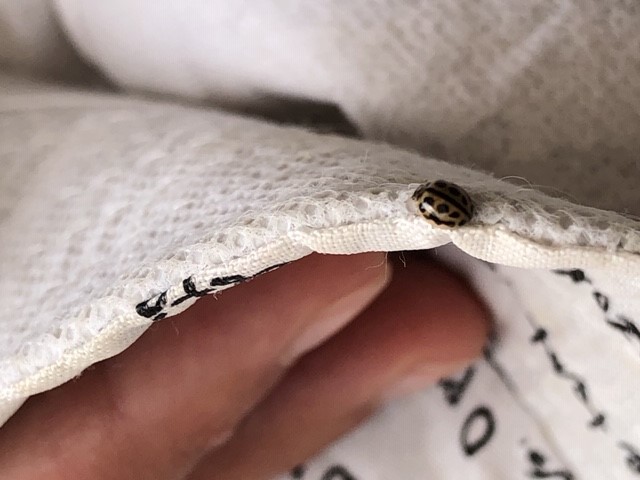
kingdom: Animalia
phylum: Arthropoda
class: Insecta
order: Coleoptera
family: Coccinellidae
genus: Tytthaspis
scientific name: Tytthaspis sedecimpunctata
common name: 16-spot ladybird
